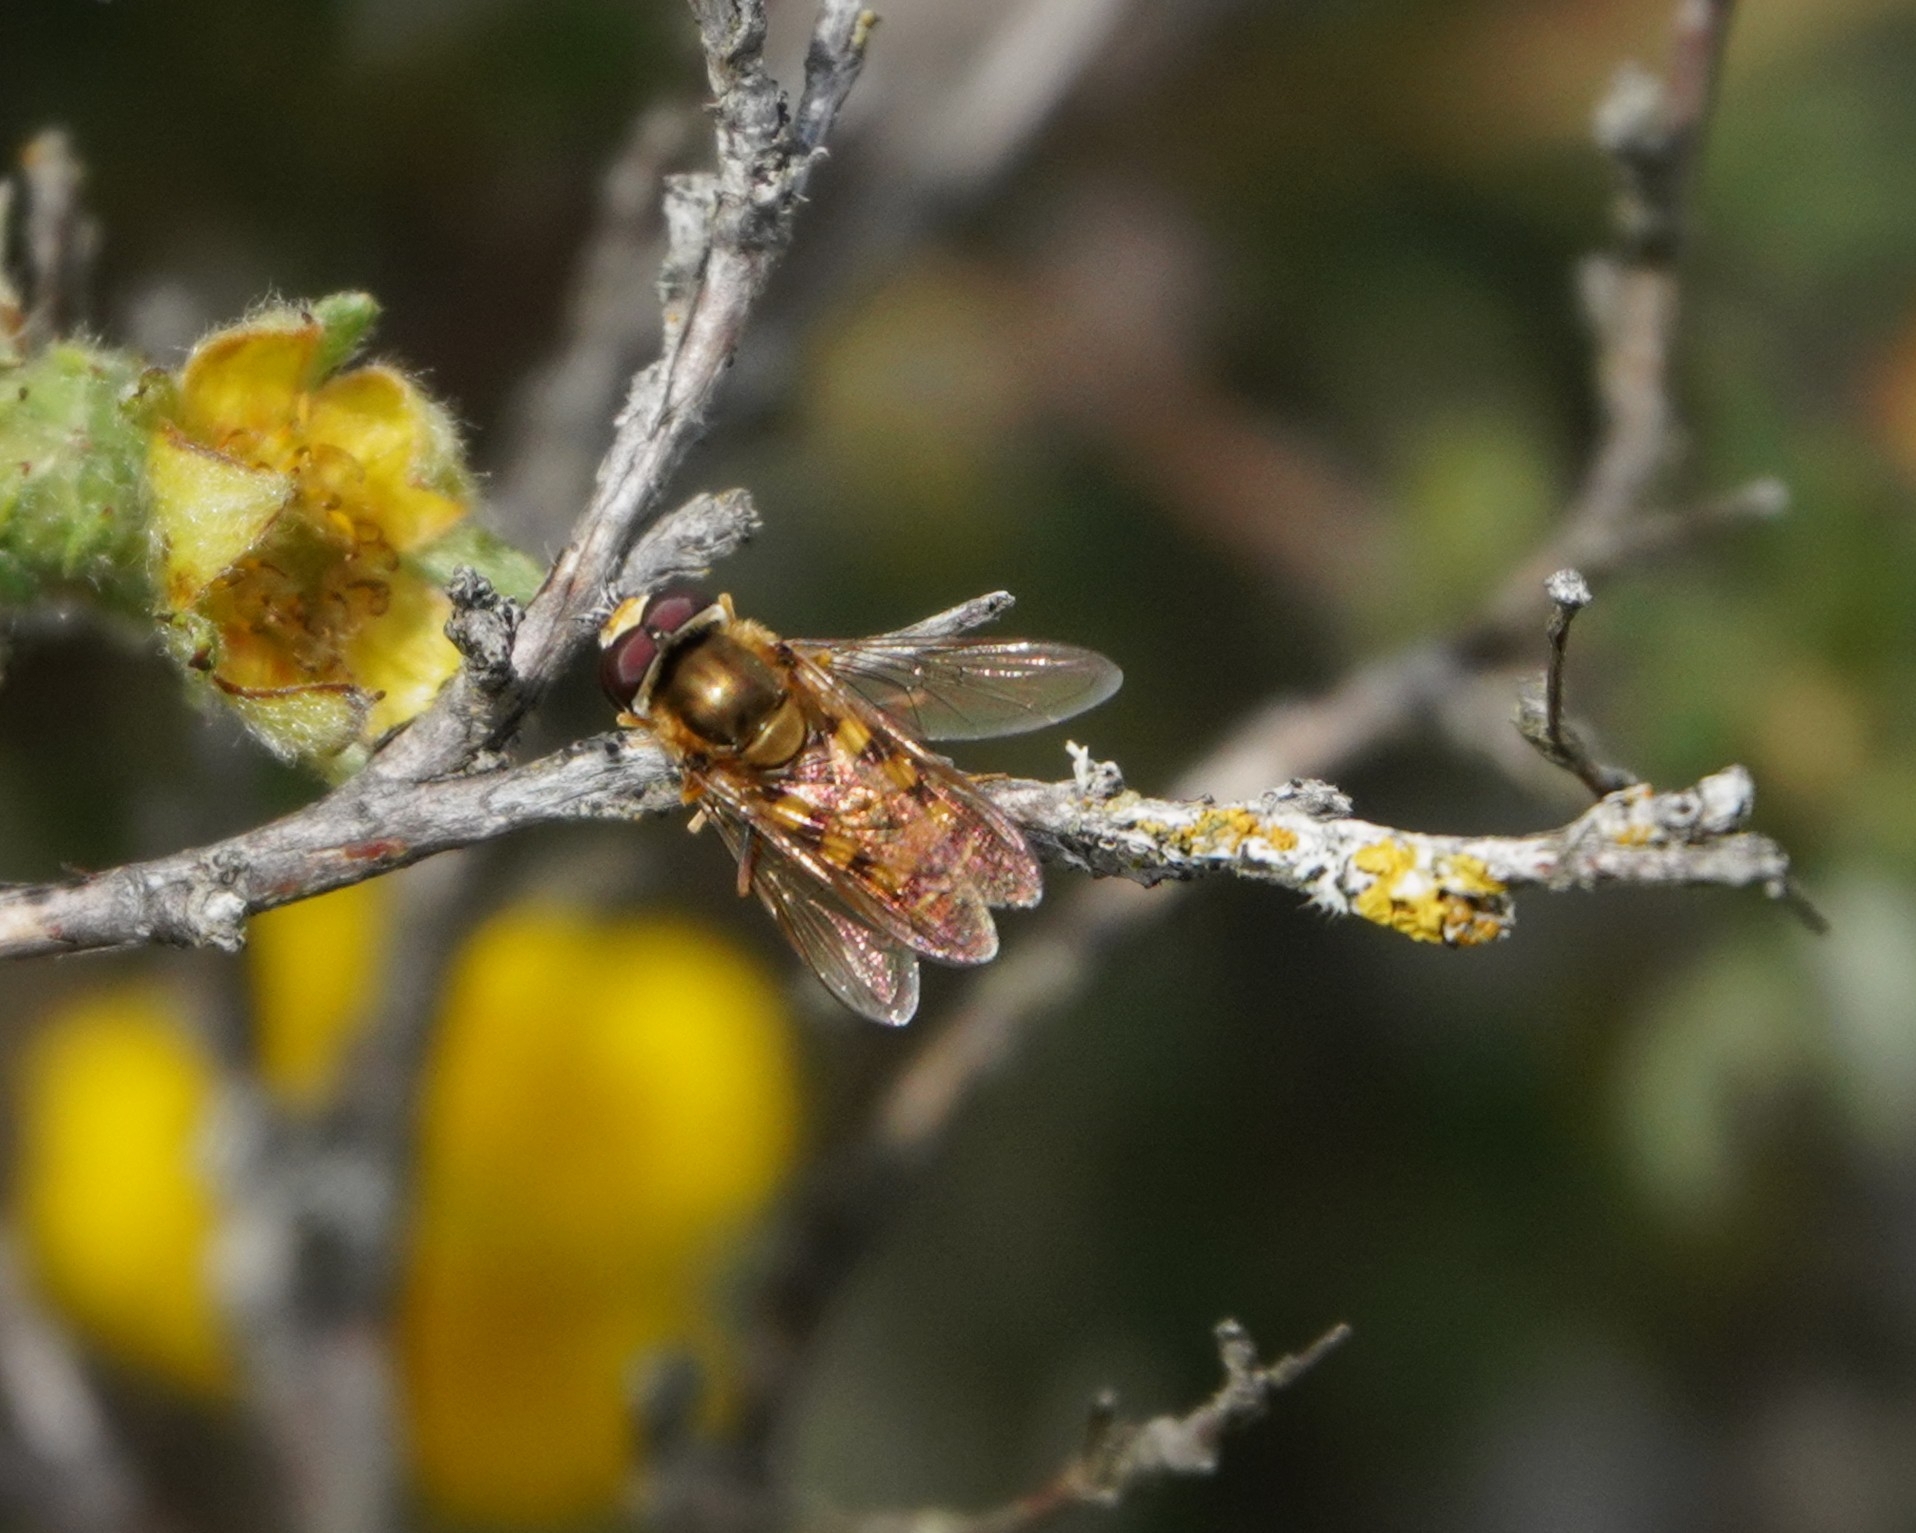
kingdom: Animalia
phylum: Arthropoda
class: Insecta
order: Diptera
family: Syrphidae
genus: Eupeodes
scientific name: Eupeodes corollae
